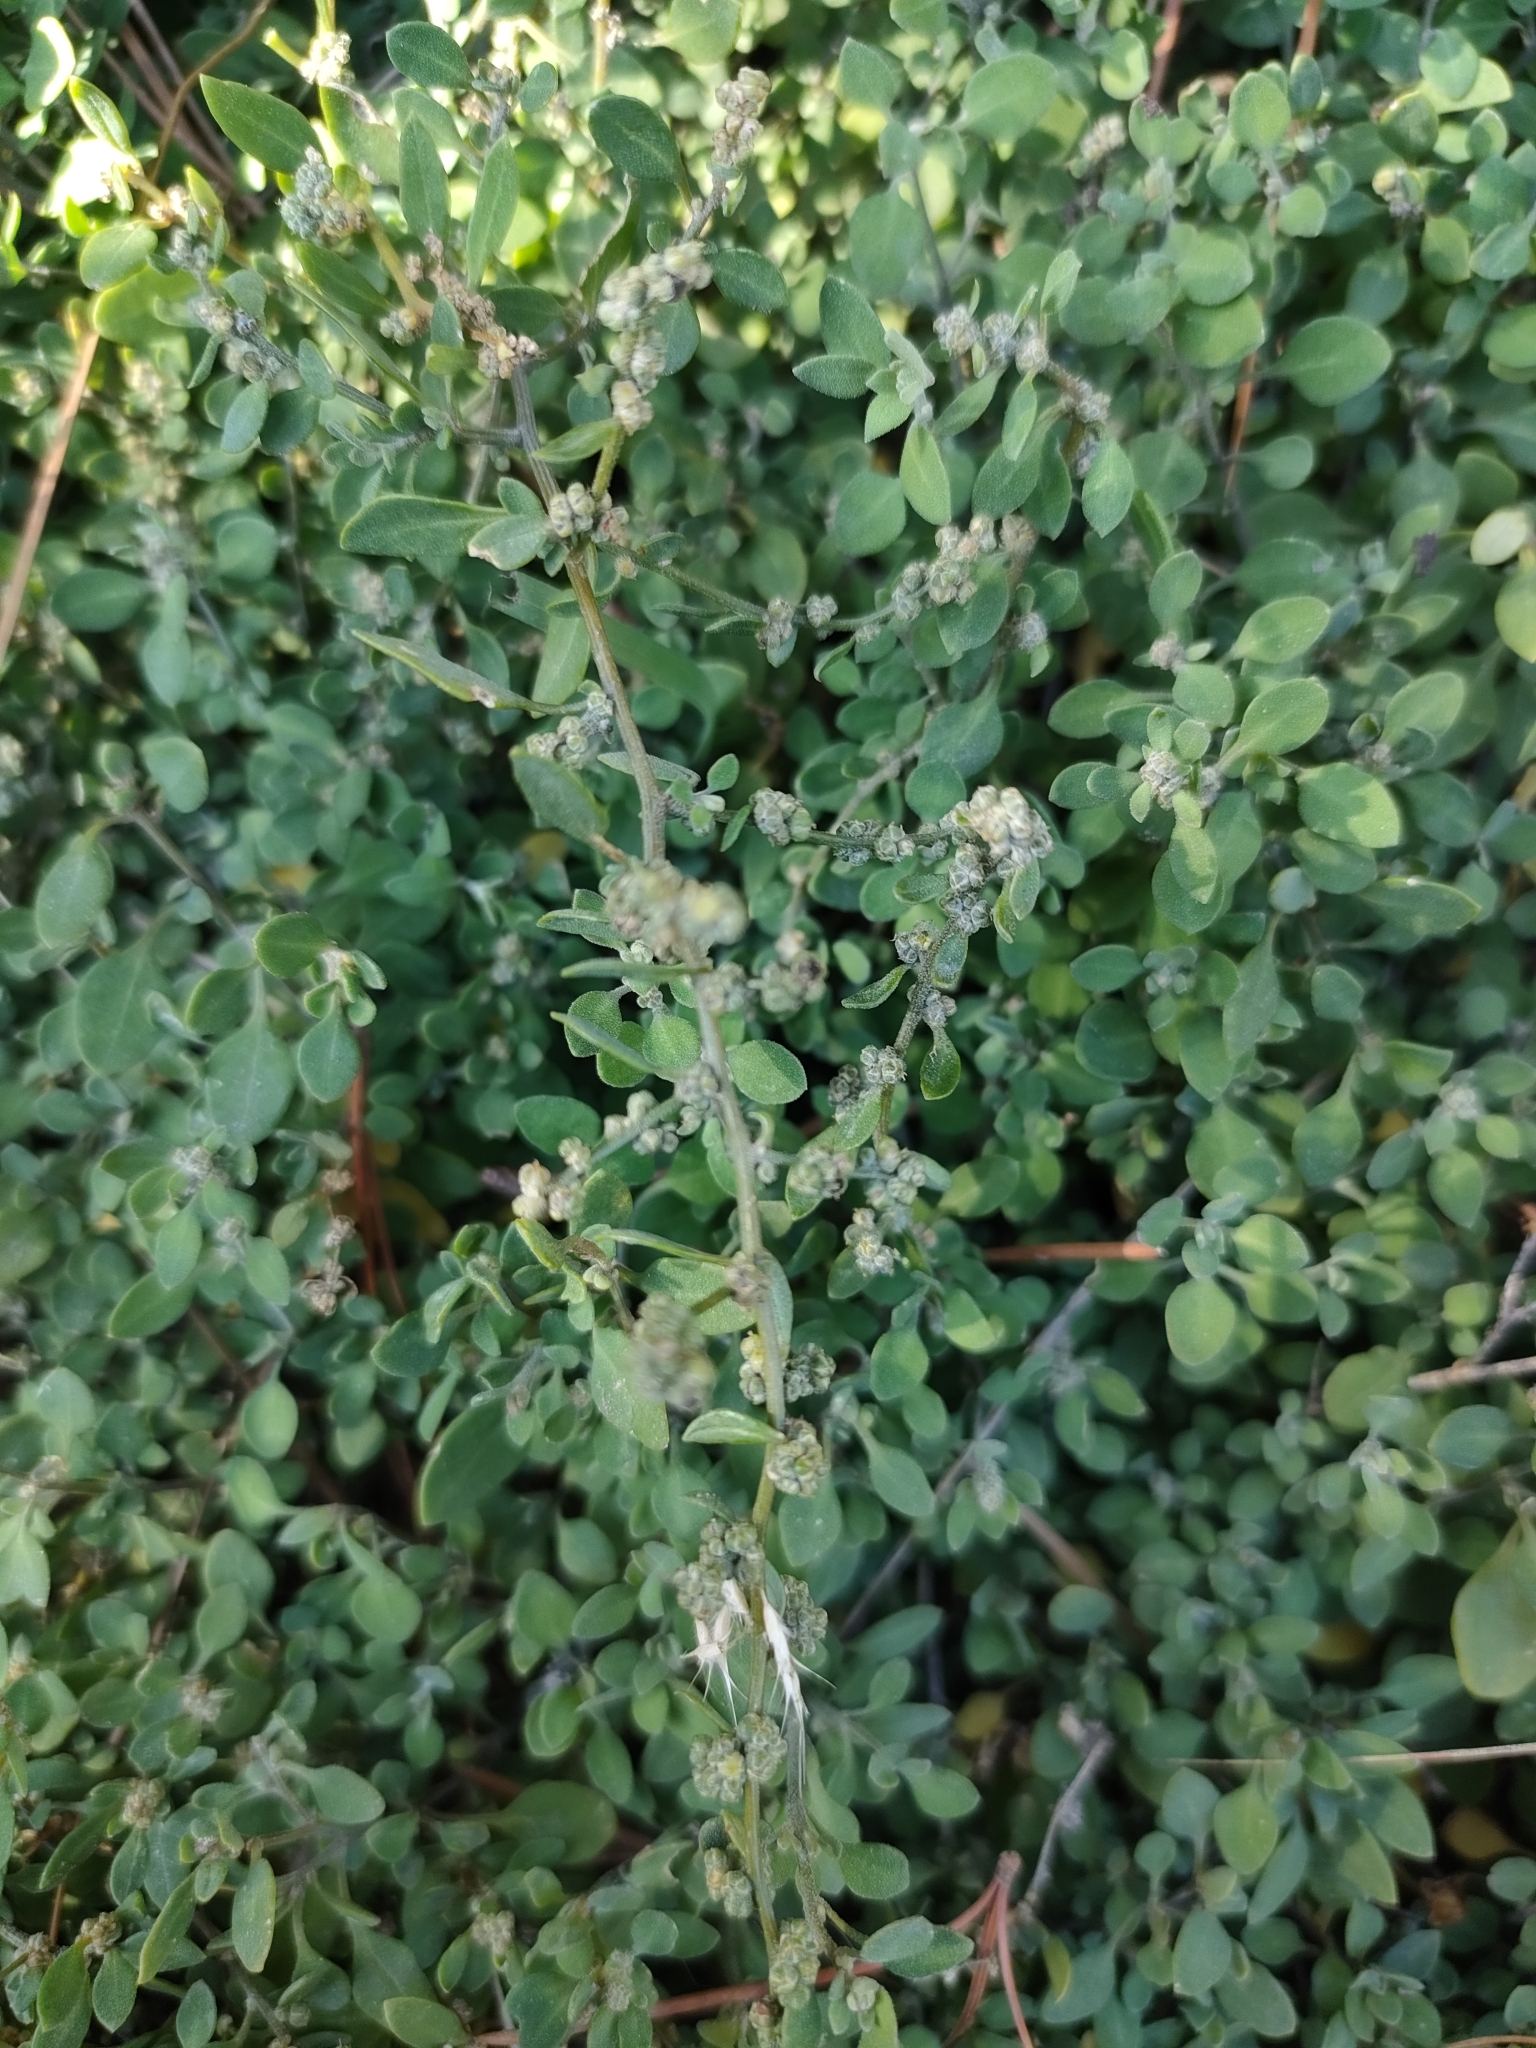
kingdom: Plantae
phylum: Tracheophyta
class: Magnoliopsida
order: Caryophyllales
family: Amaranthaceae
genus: Chenopodium
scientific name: Chenopodium allanii
